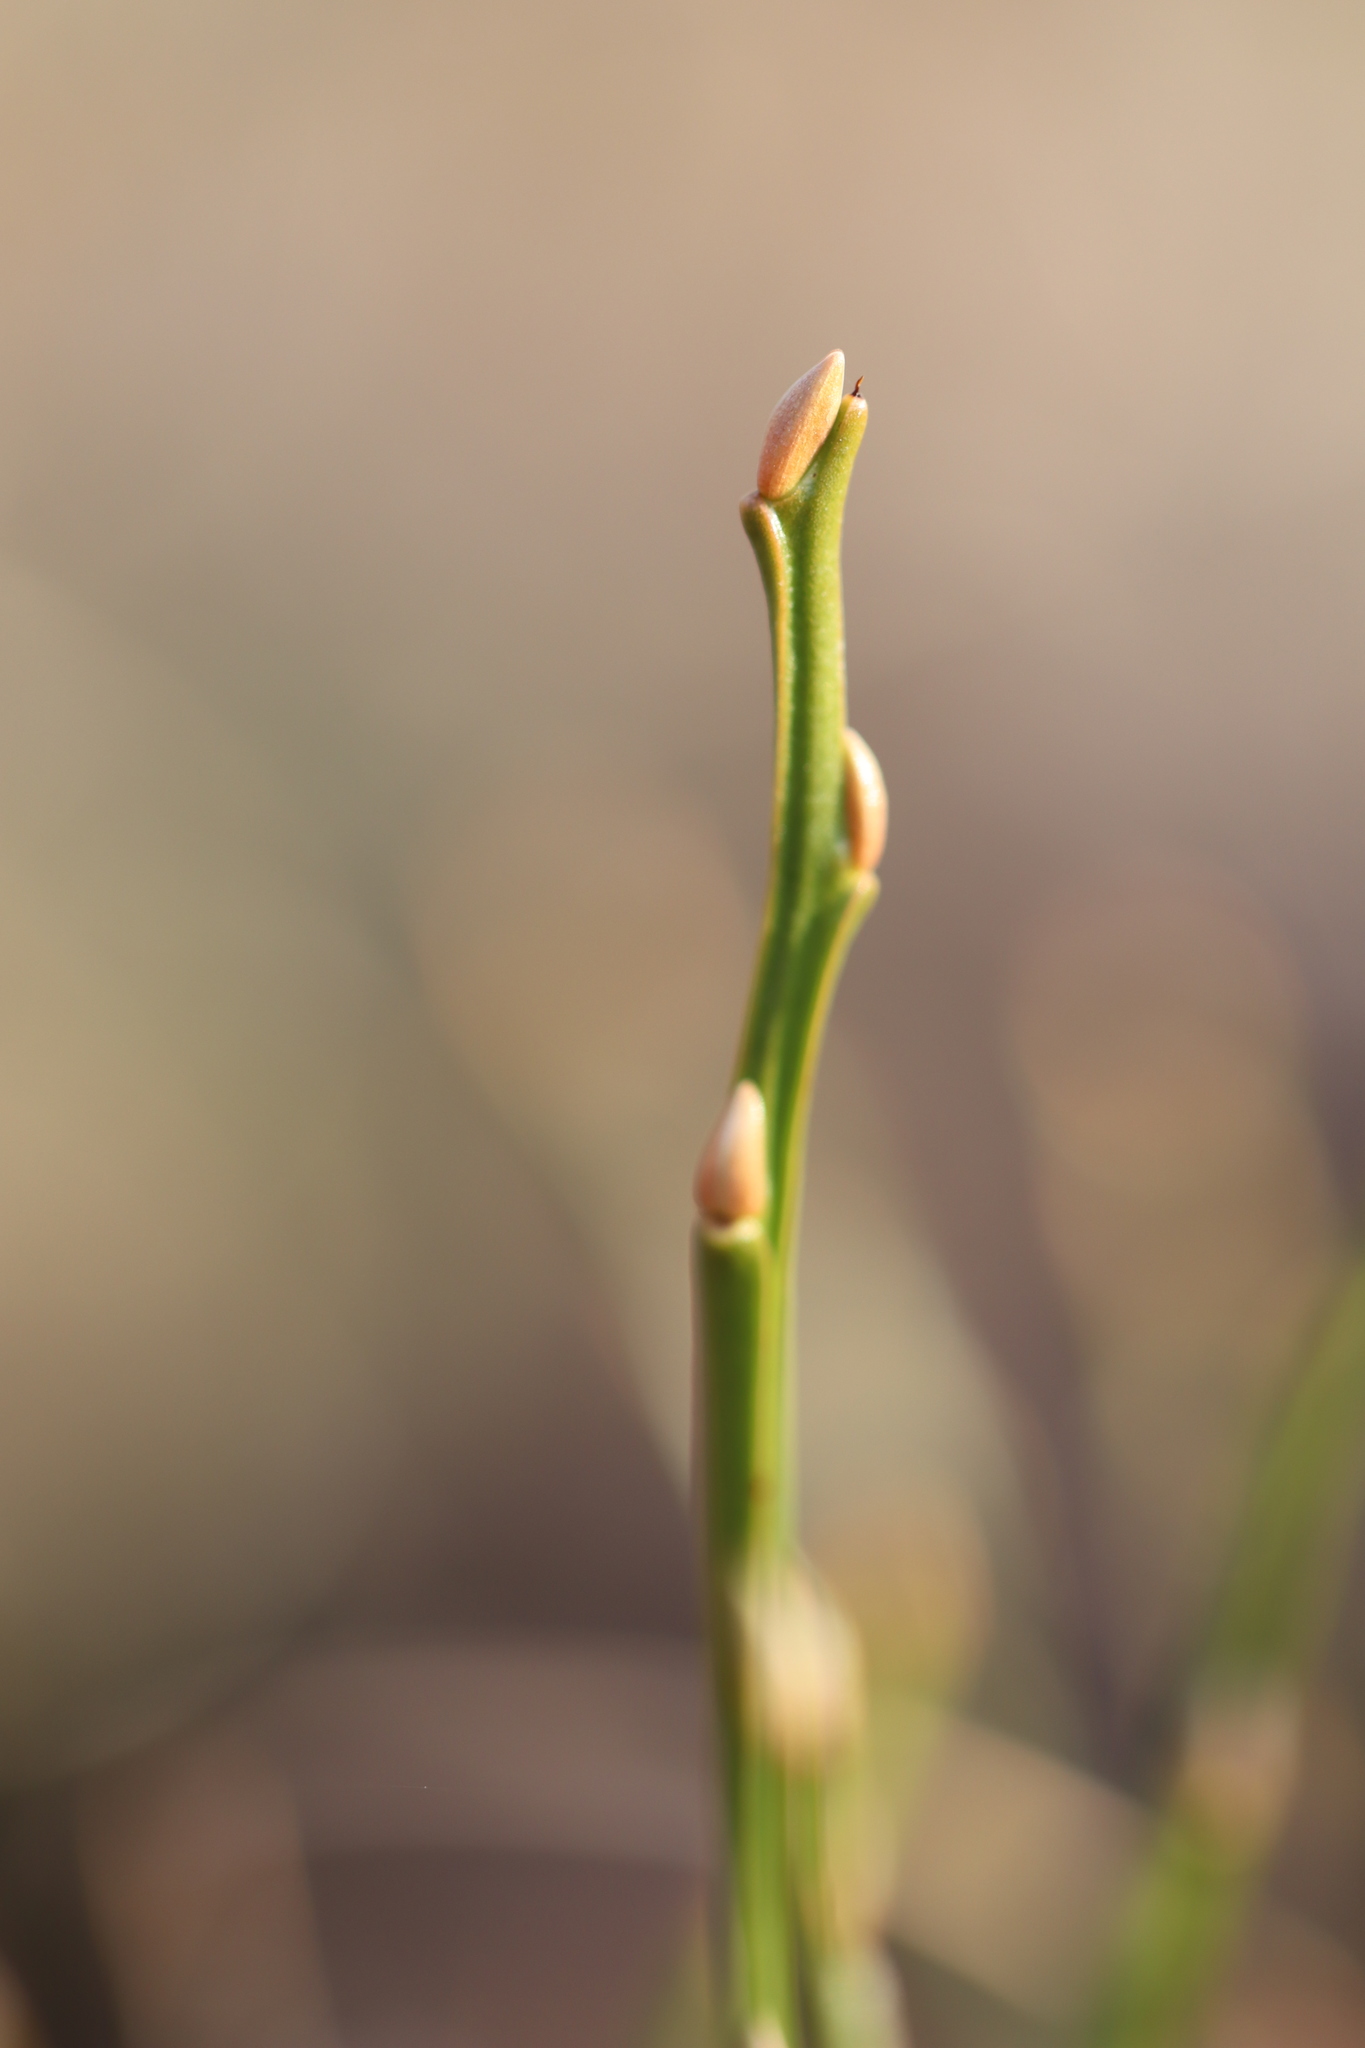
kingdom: Plantae
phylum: Tracheophyta
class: Magnoliopsida
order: Ericales
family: Ericaceae
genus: Vaccinium
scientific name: Vaccinium myrtillus
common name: Bilberry
